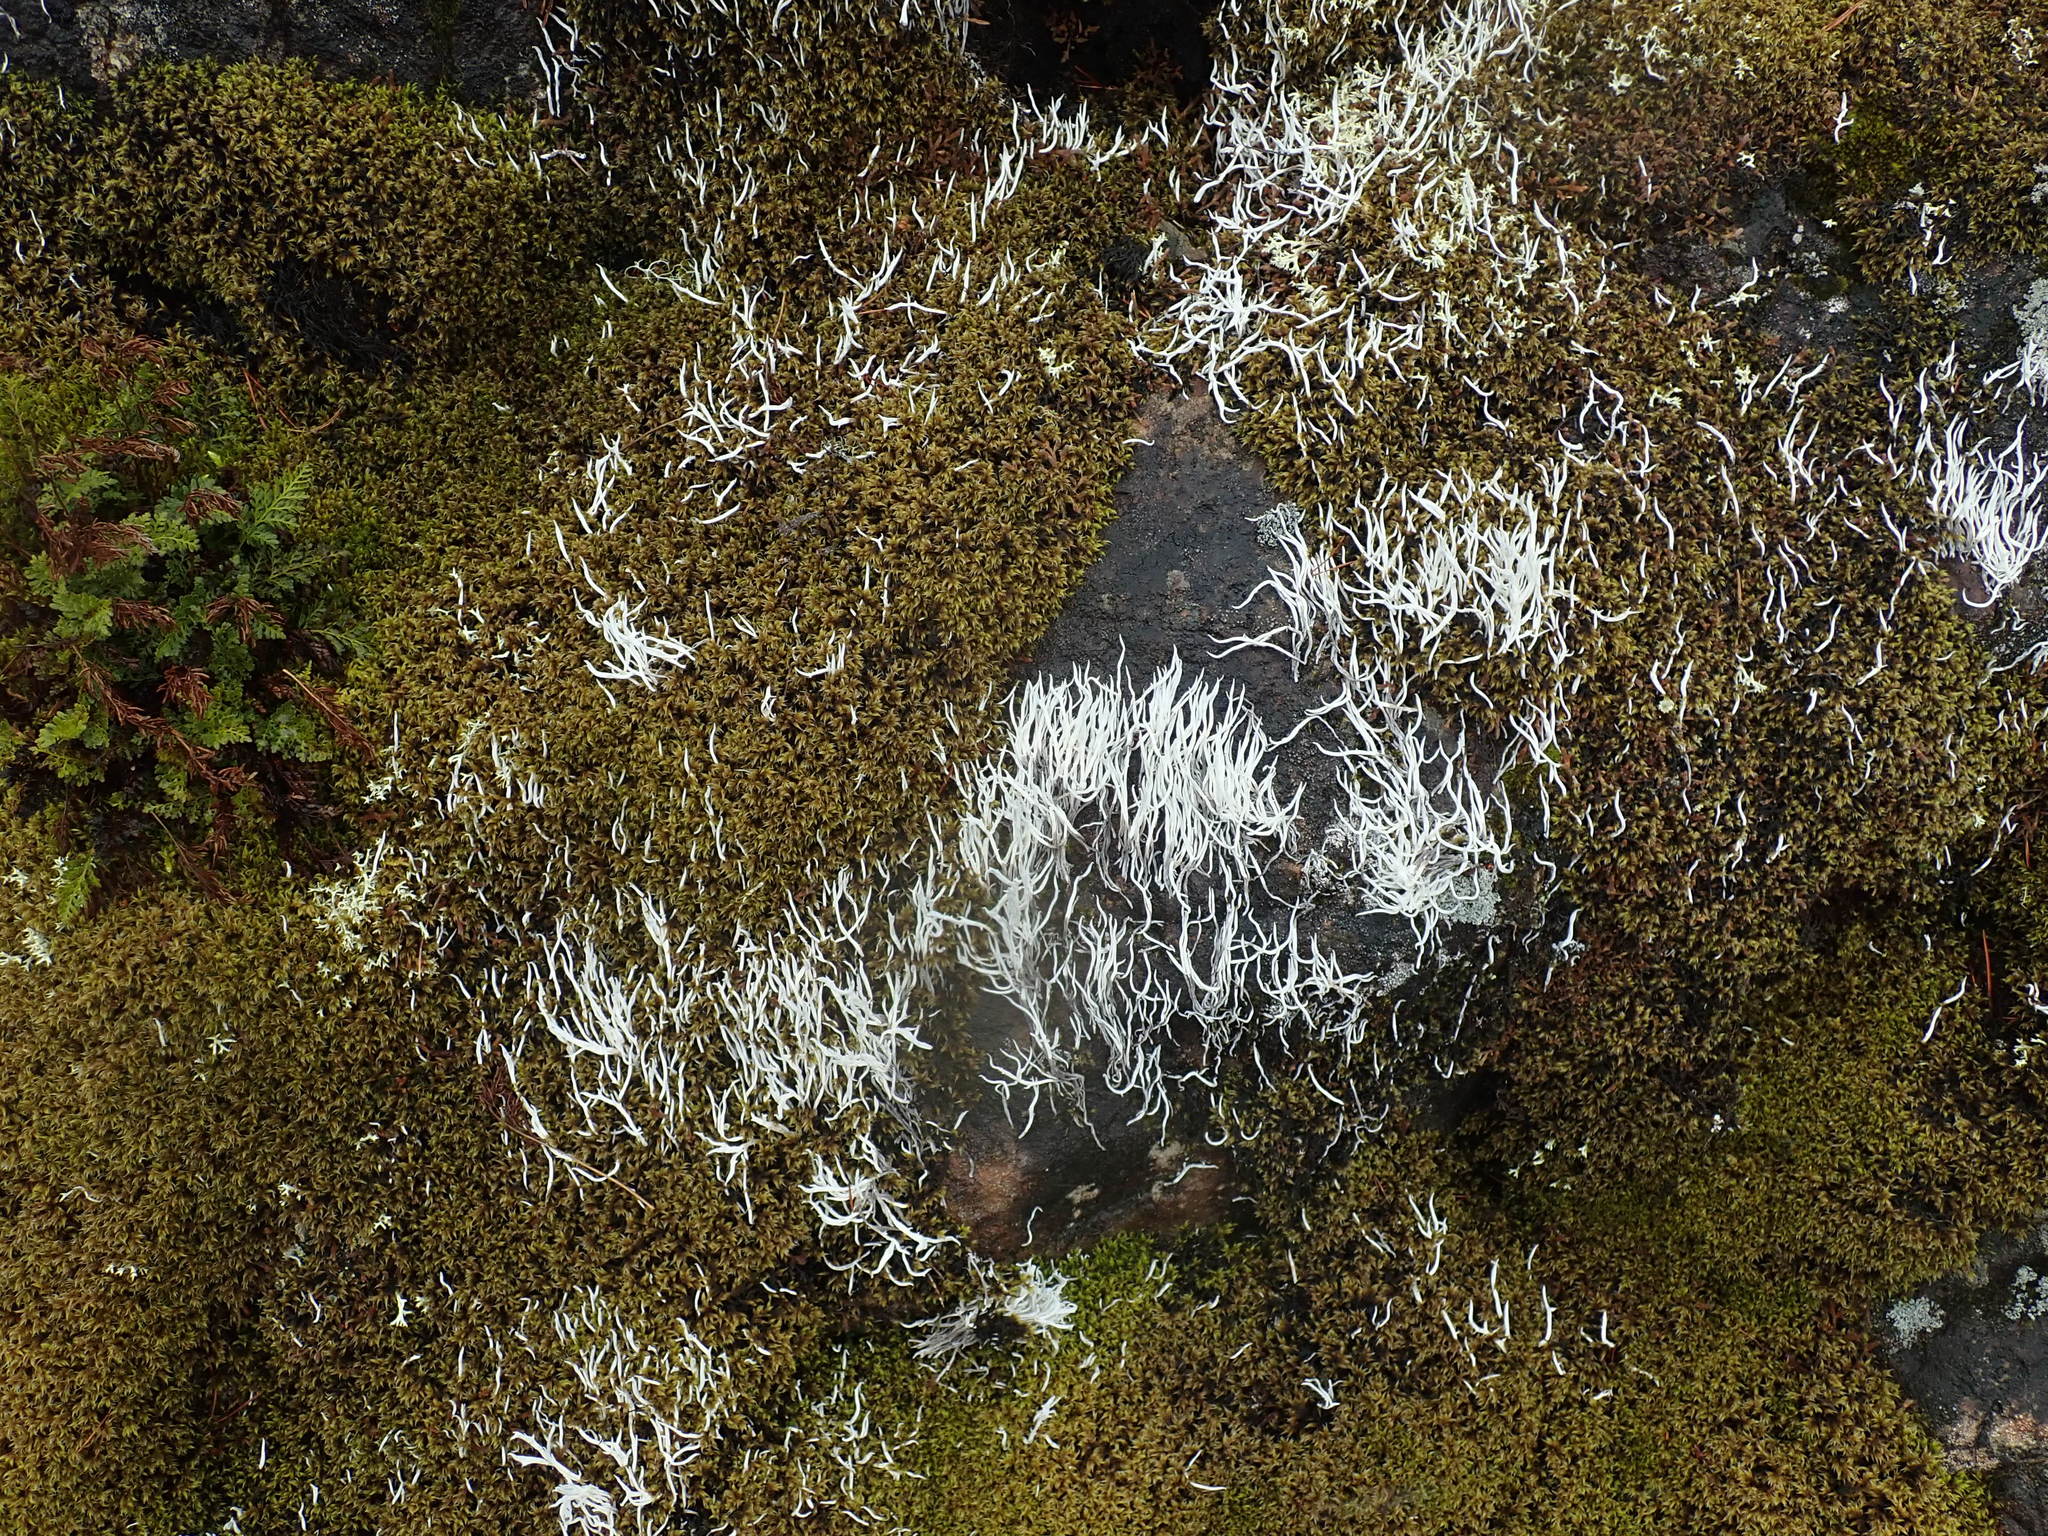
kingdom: Fungi
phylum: Ascomycota
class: Lecanoromycetes
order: Pertusariales
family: Icmadophilaceae
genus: Thamnolia
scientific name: Thamnolia vermicularis
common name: Whiteworm lichen
